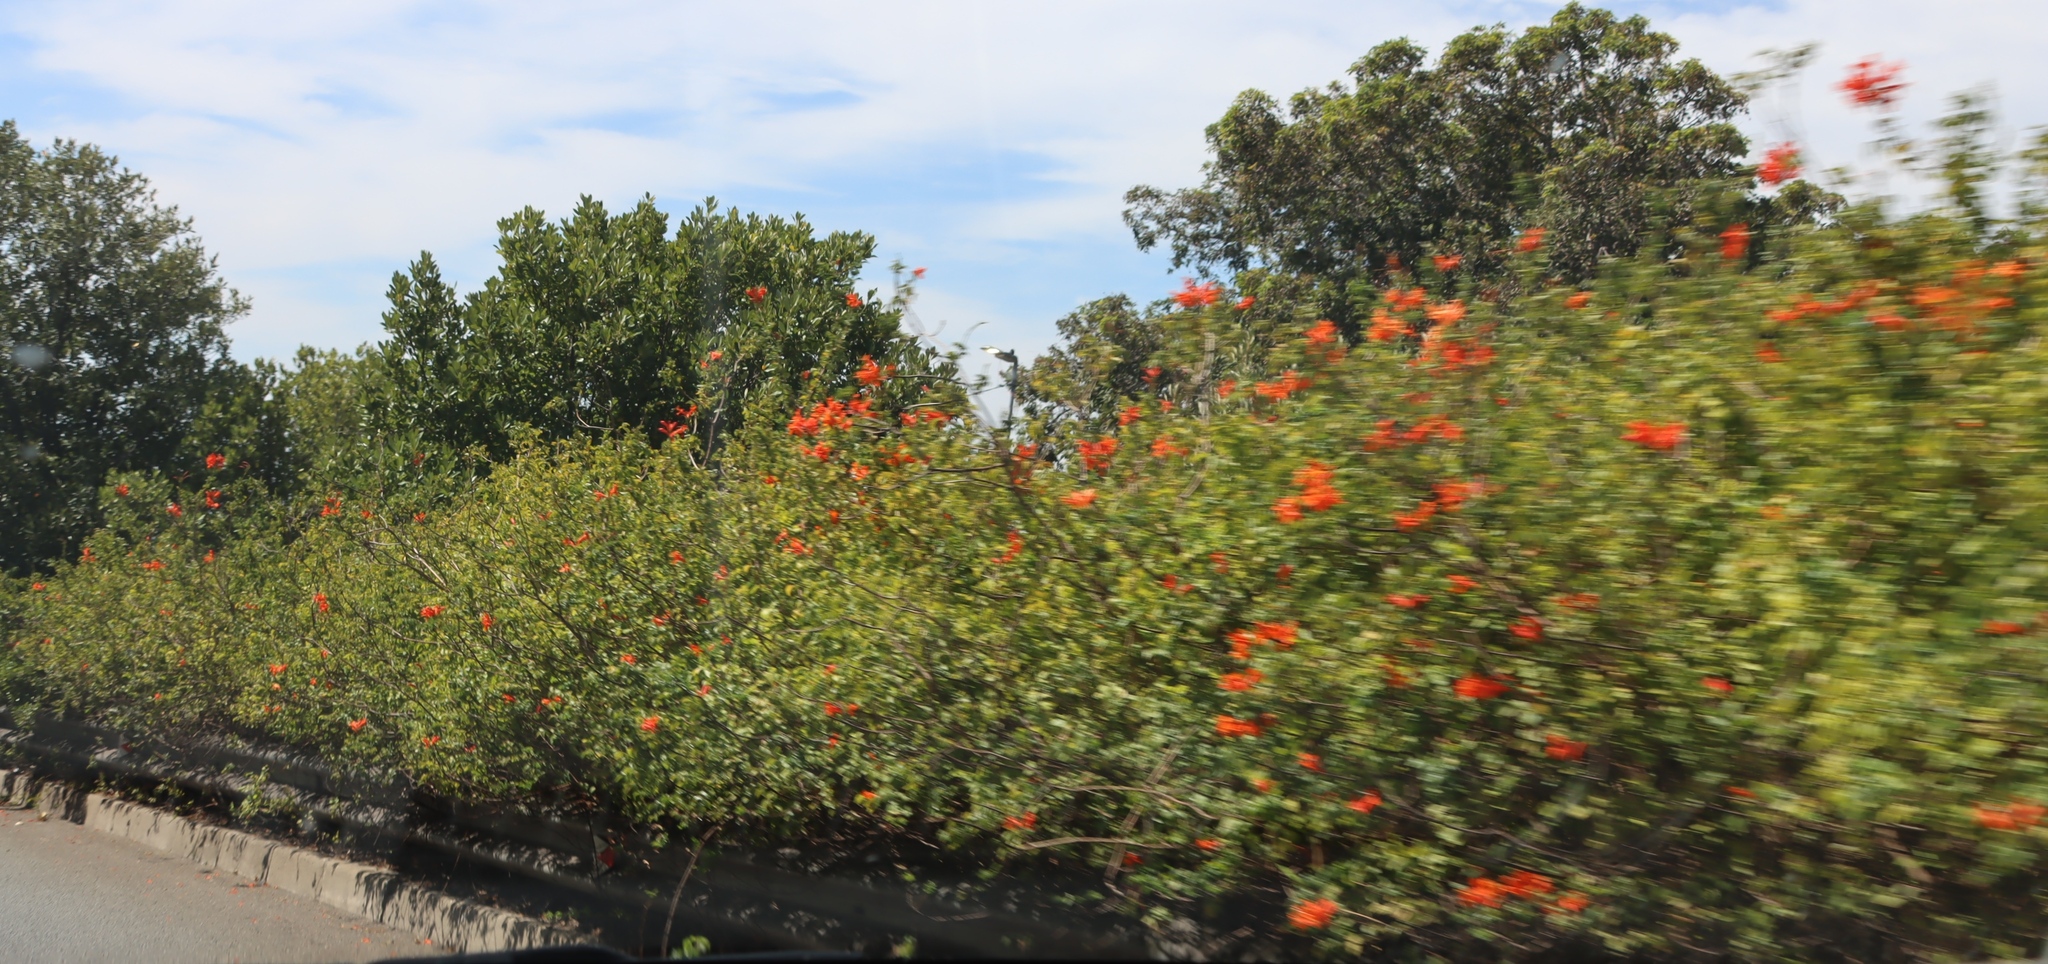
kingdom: Plantae
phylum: Tracheophyta
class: Magnoliopsida
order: Lamiales
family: Bignoniaceae
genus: Tecomaria
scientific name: Tecomaria capensis
